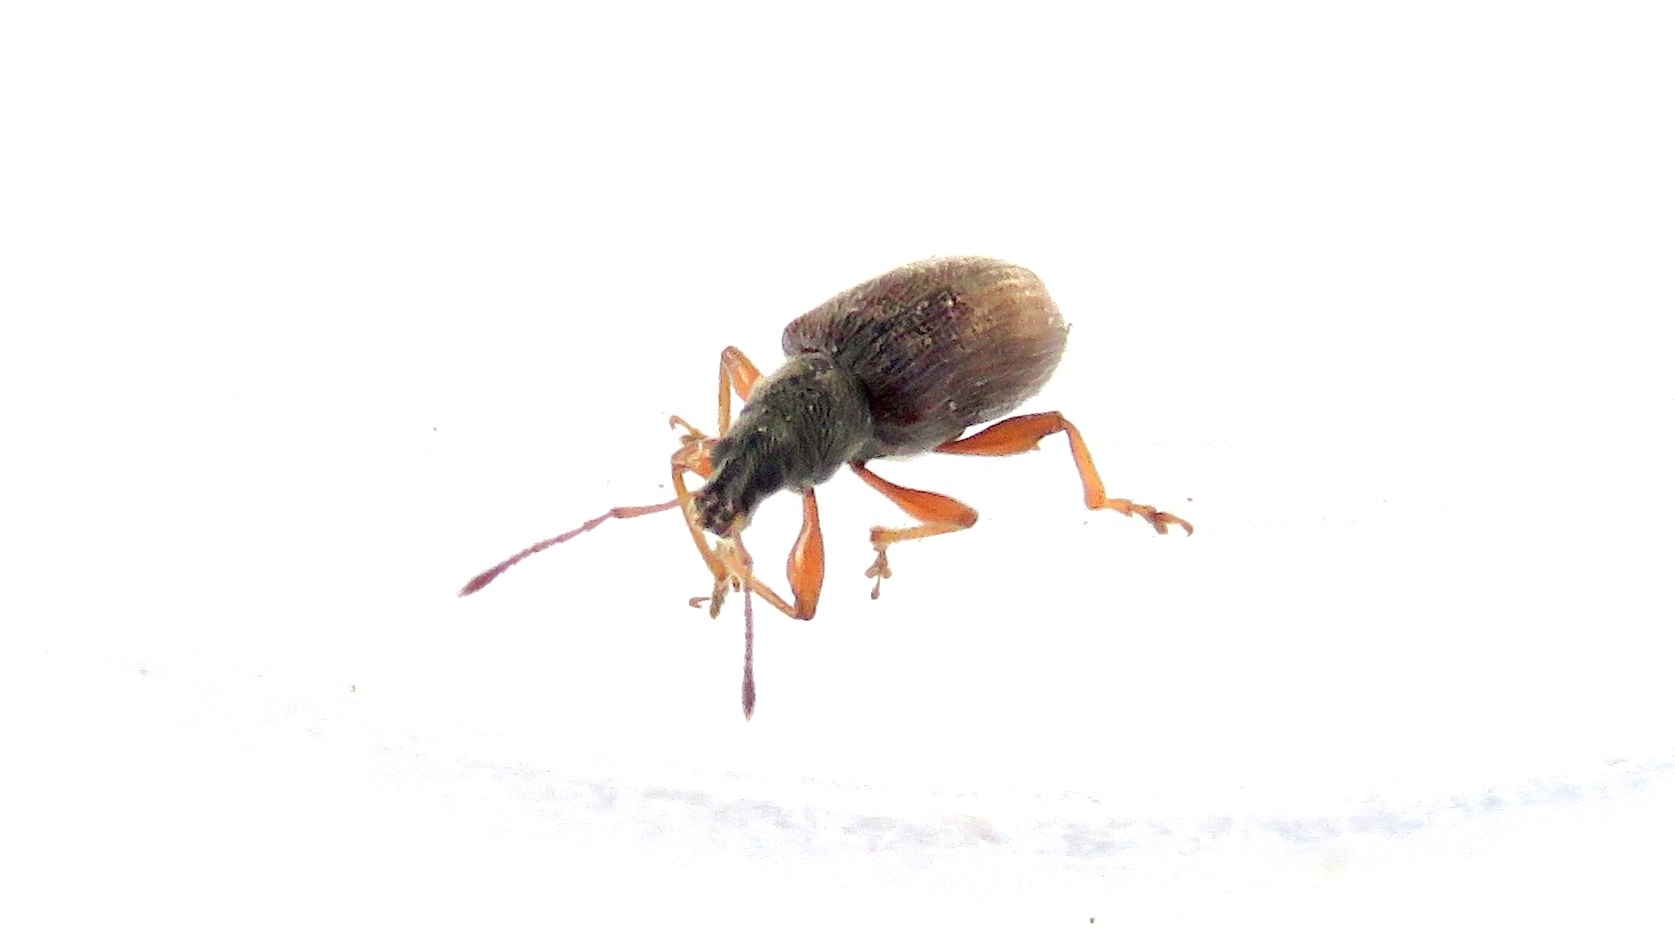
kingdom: Animalia
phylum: Arthropoda
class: Insecta
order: Coleoptera
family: Curculionidae
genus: Phyllobius
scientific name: Phyllobius oblongus
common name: Brown leaf weevil
